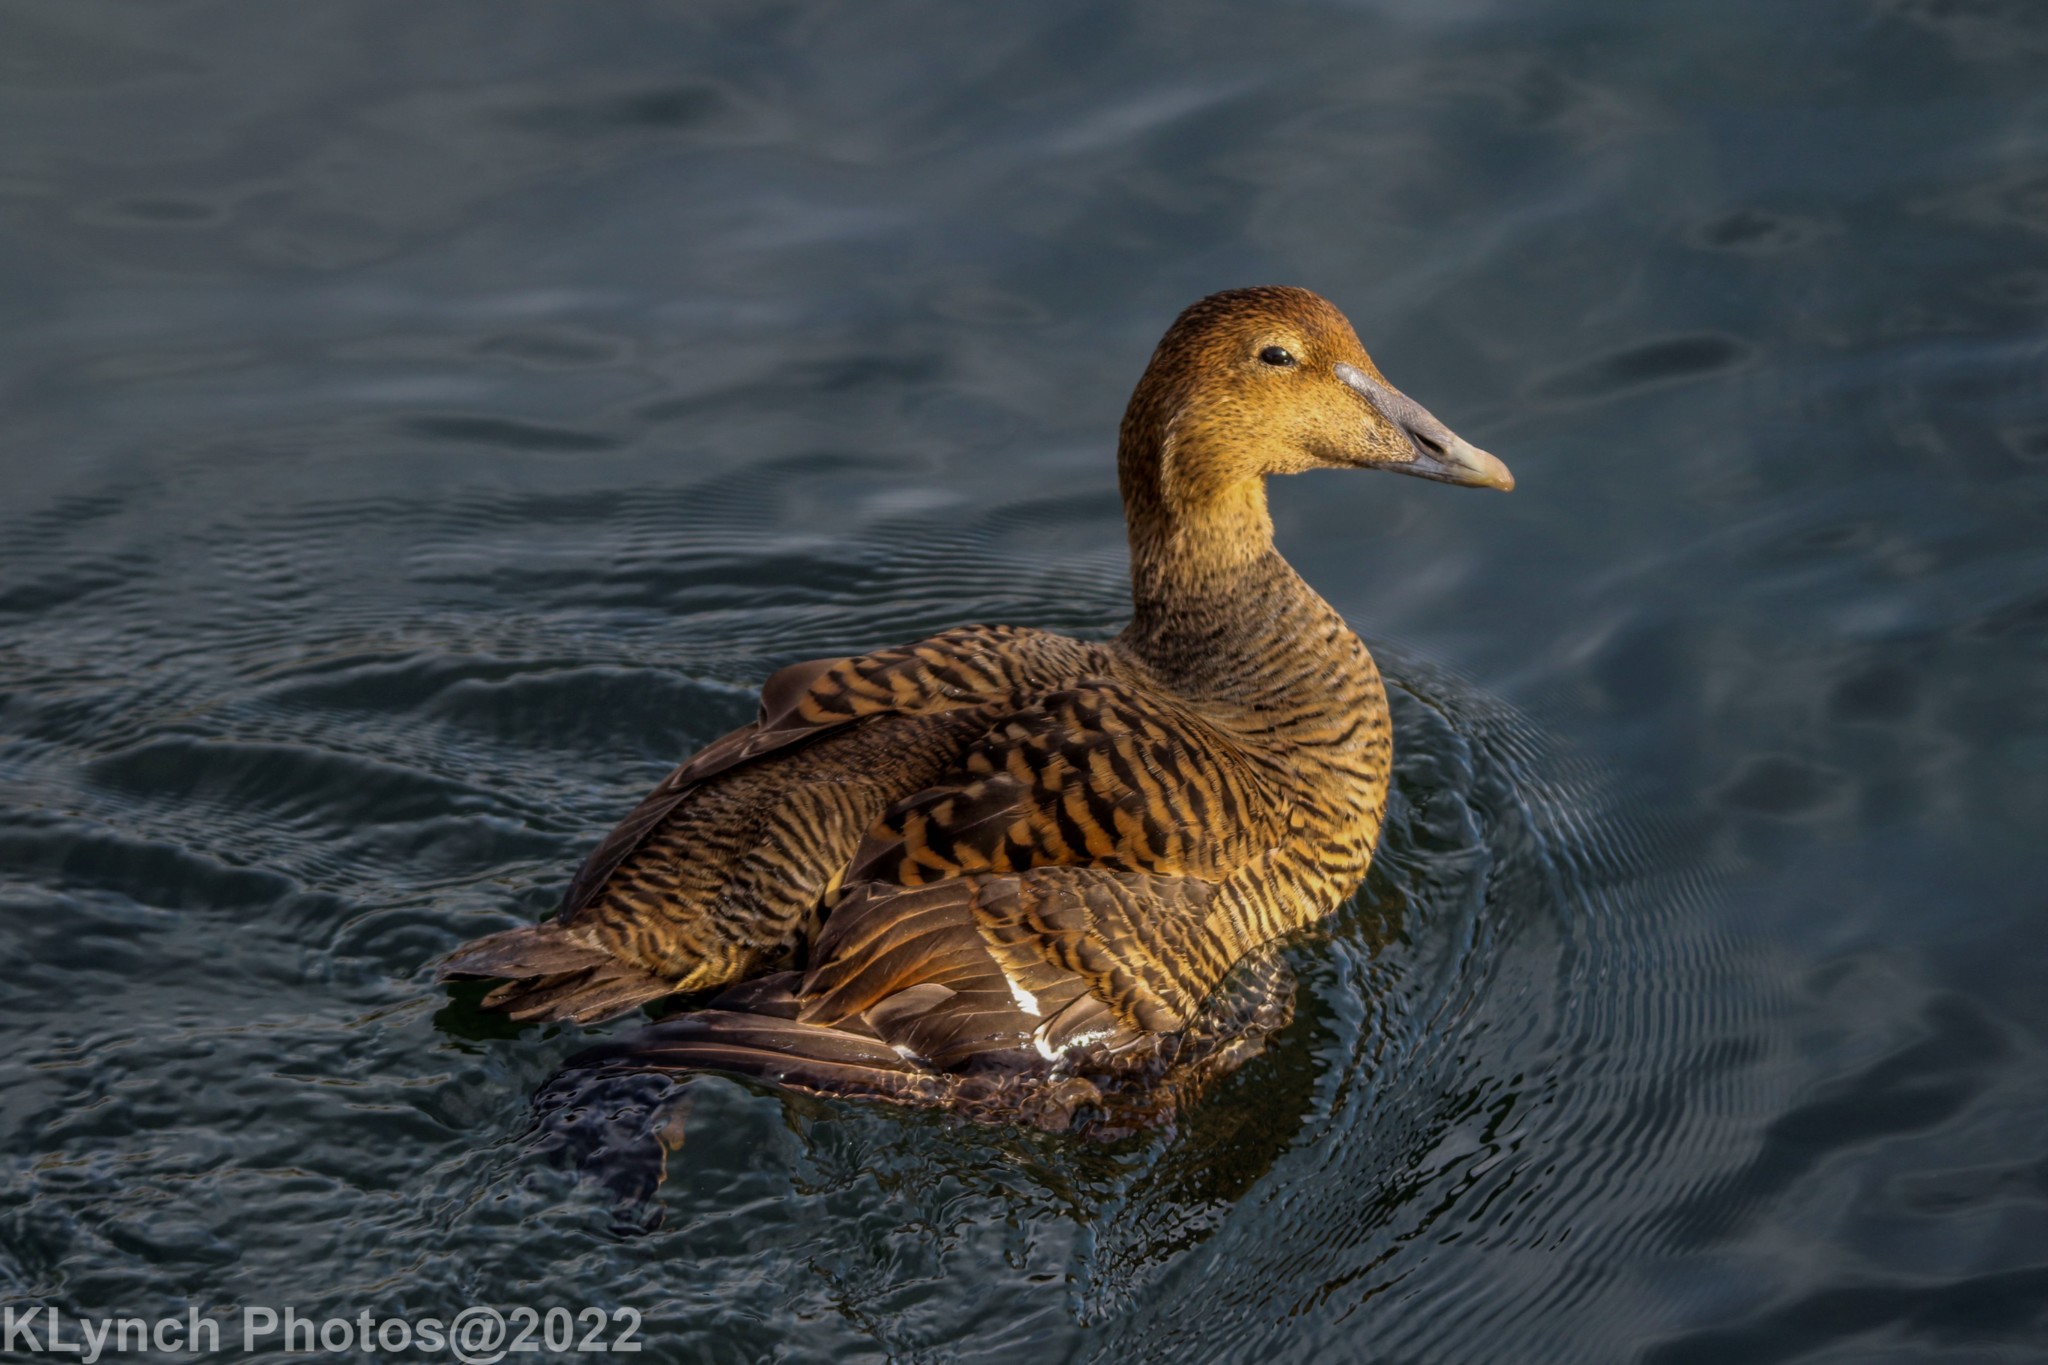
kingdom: Animalia
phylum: Chordata
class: Aves
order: Anseriformes
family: Anatidae
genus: Somateria
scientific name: Somateria mollissima
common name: Common eider
